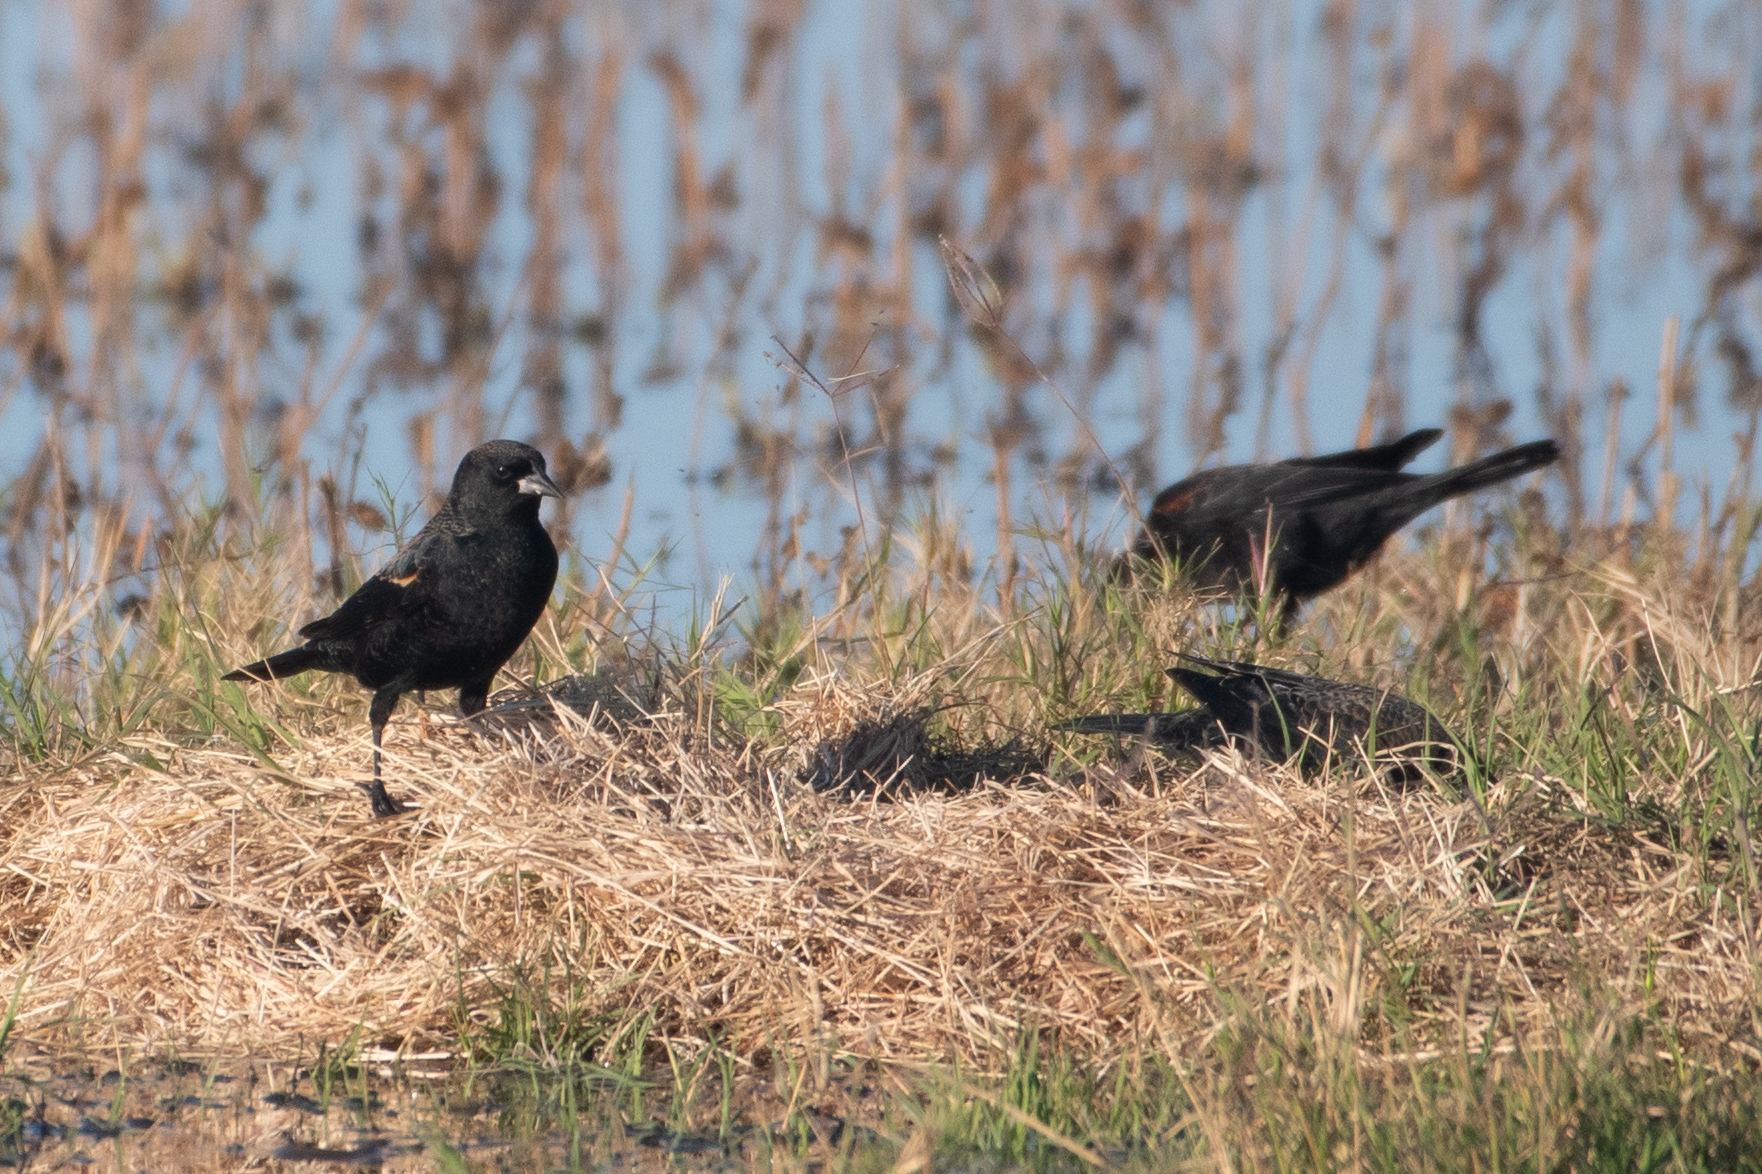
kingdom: Animalia
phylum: Chordata
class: Aves
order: Passeriformes
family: Icteridae
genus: Agelaius
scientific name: Agelaius phoeniceus
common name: Red-winged blackbird
